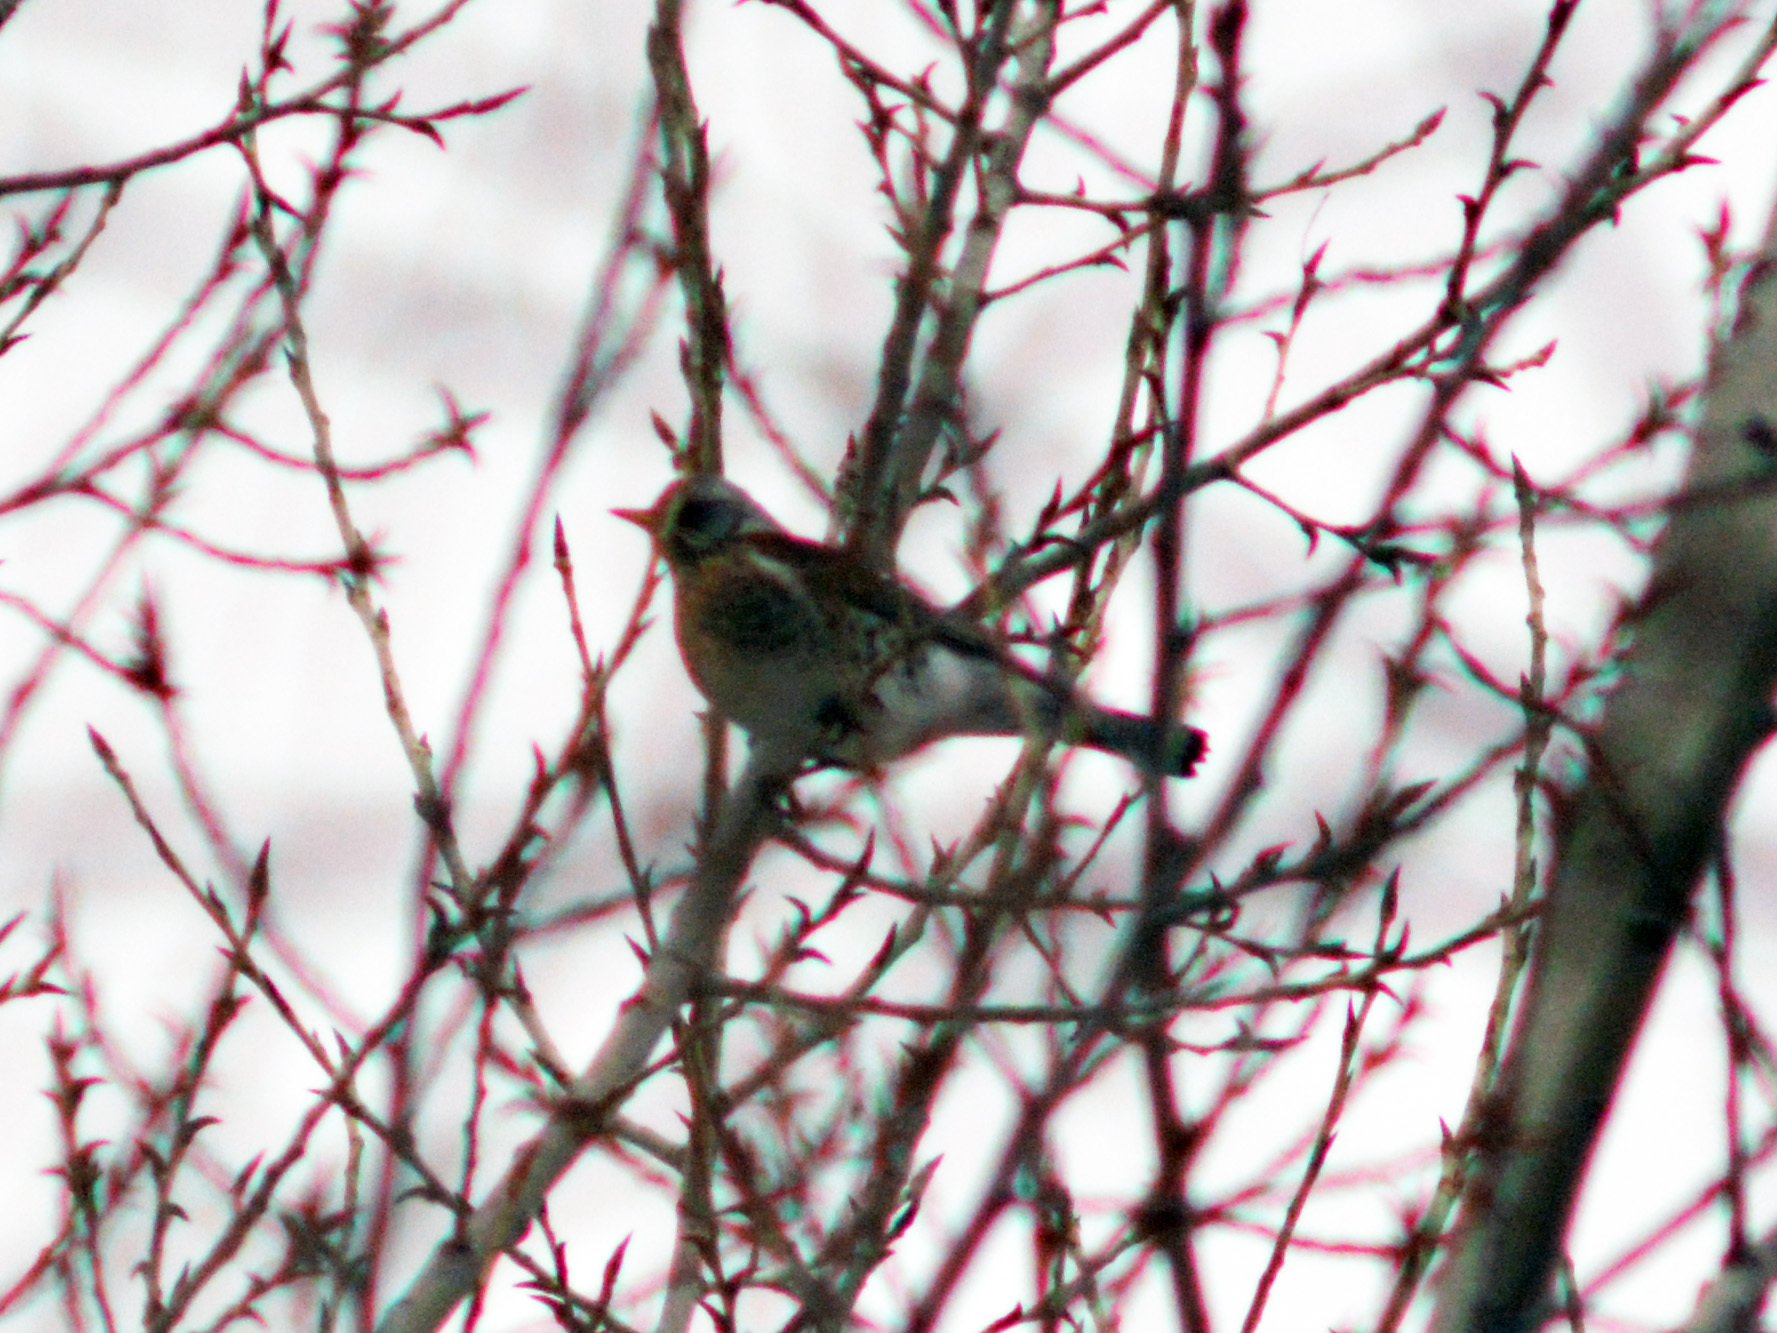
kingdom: Animalia
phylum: Chordata
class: Aves
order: Passeriformes
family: Turdidae
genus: Turdus
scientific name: Turdus pilaris
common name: Fieldfare
